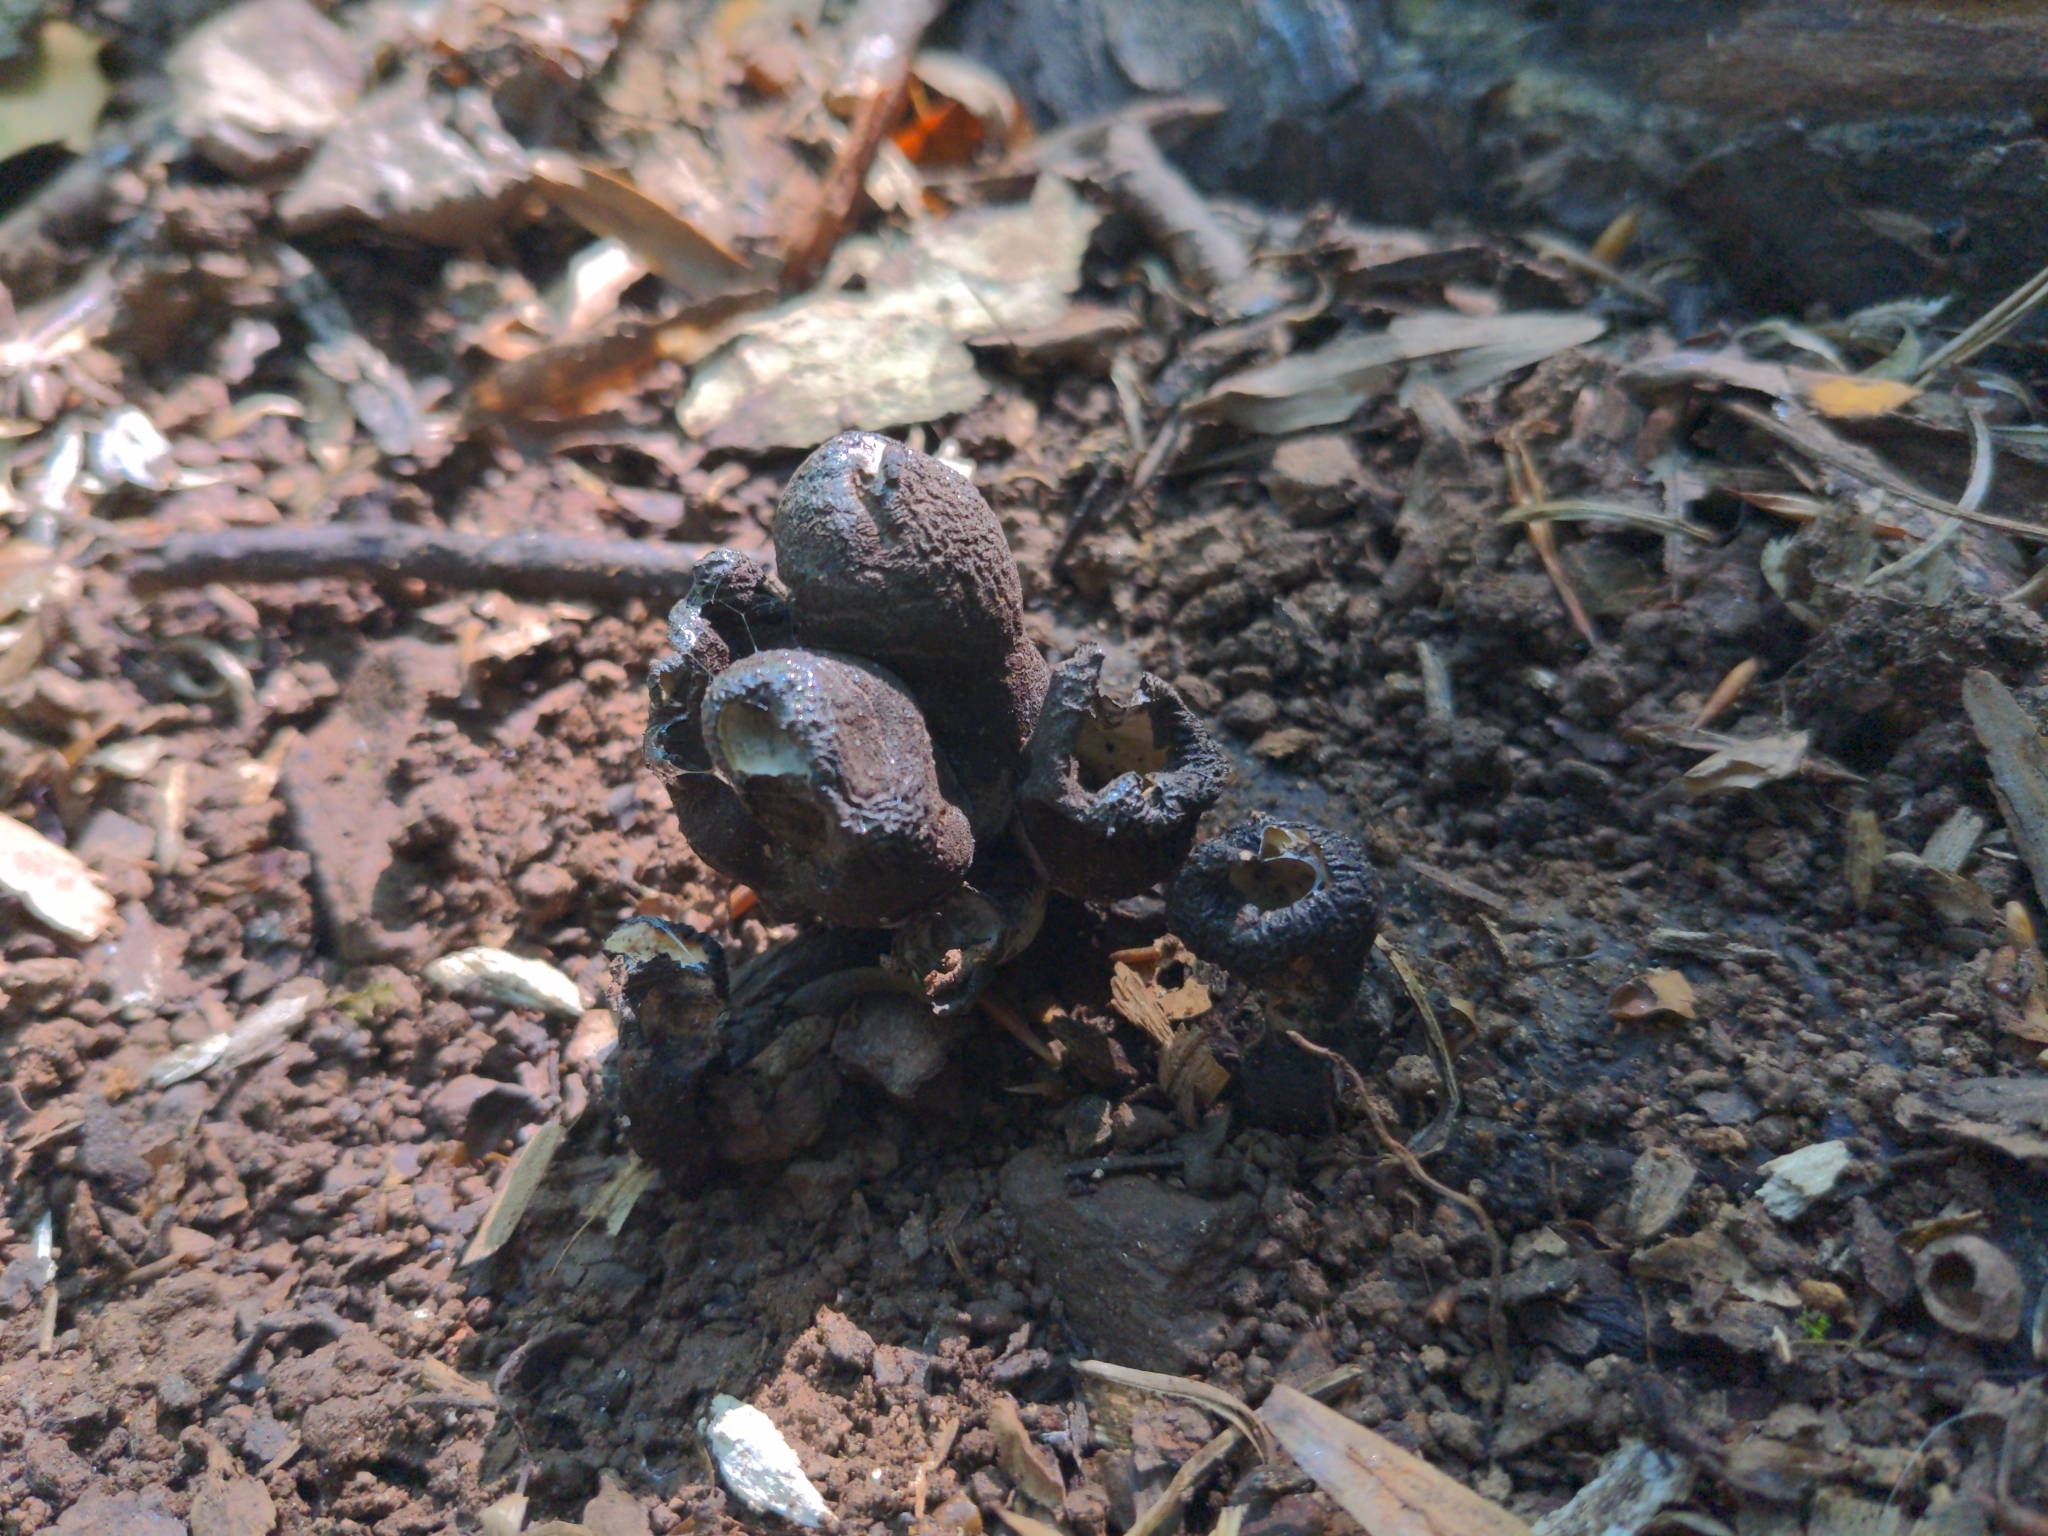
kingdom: Fungi
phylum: Ascomycota
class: Sordariomycetes
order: Xylariales
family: Xylariaceae
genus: Xylaria
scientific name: Xylaria polymorpha
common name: Dead man's fingers
